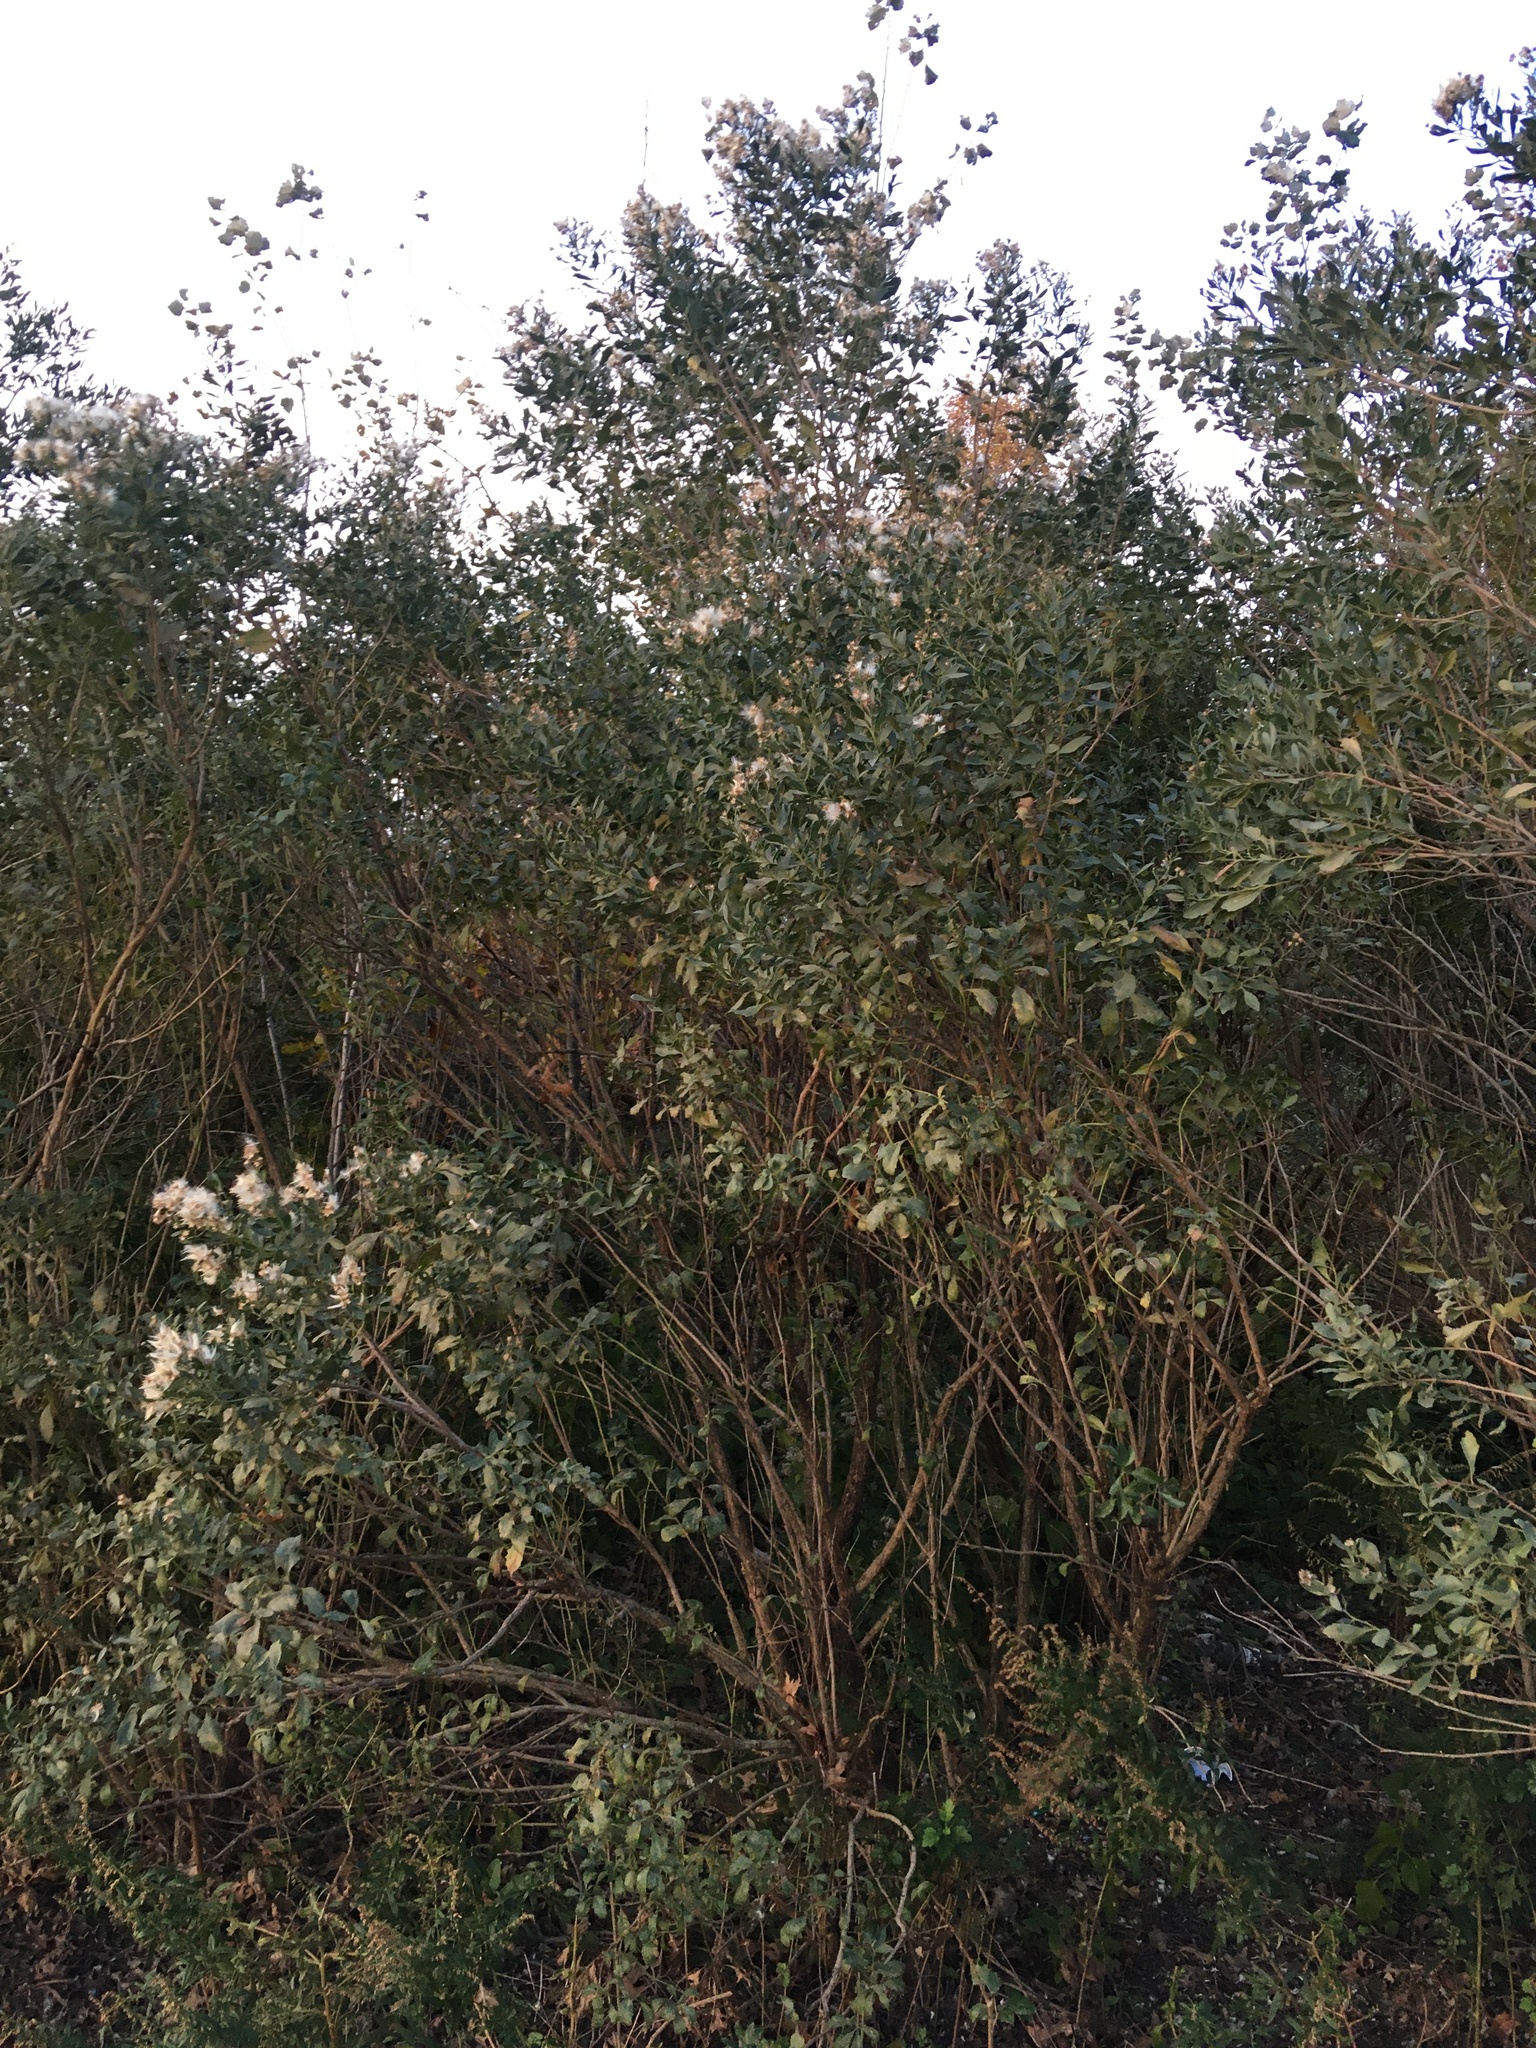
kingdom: Plantae
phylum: Tracheophyta
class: Magnoliopsida
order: Asterales
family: Asteraceae
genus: Baccharis
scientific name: Baccharis halimifolia
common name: Eastern baccharis
